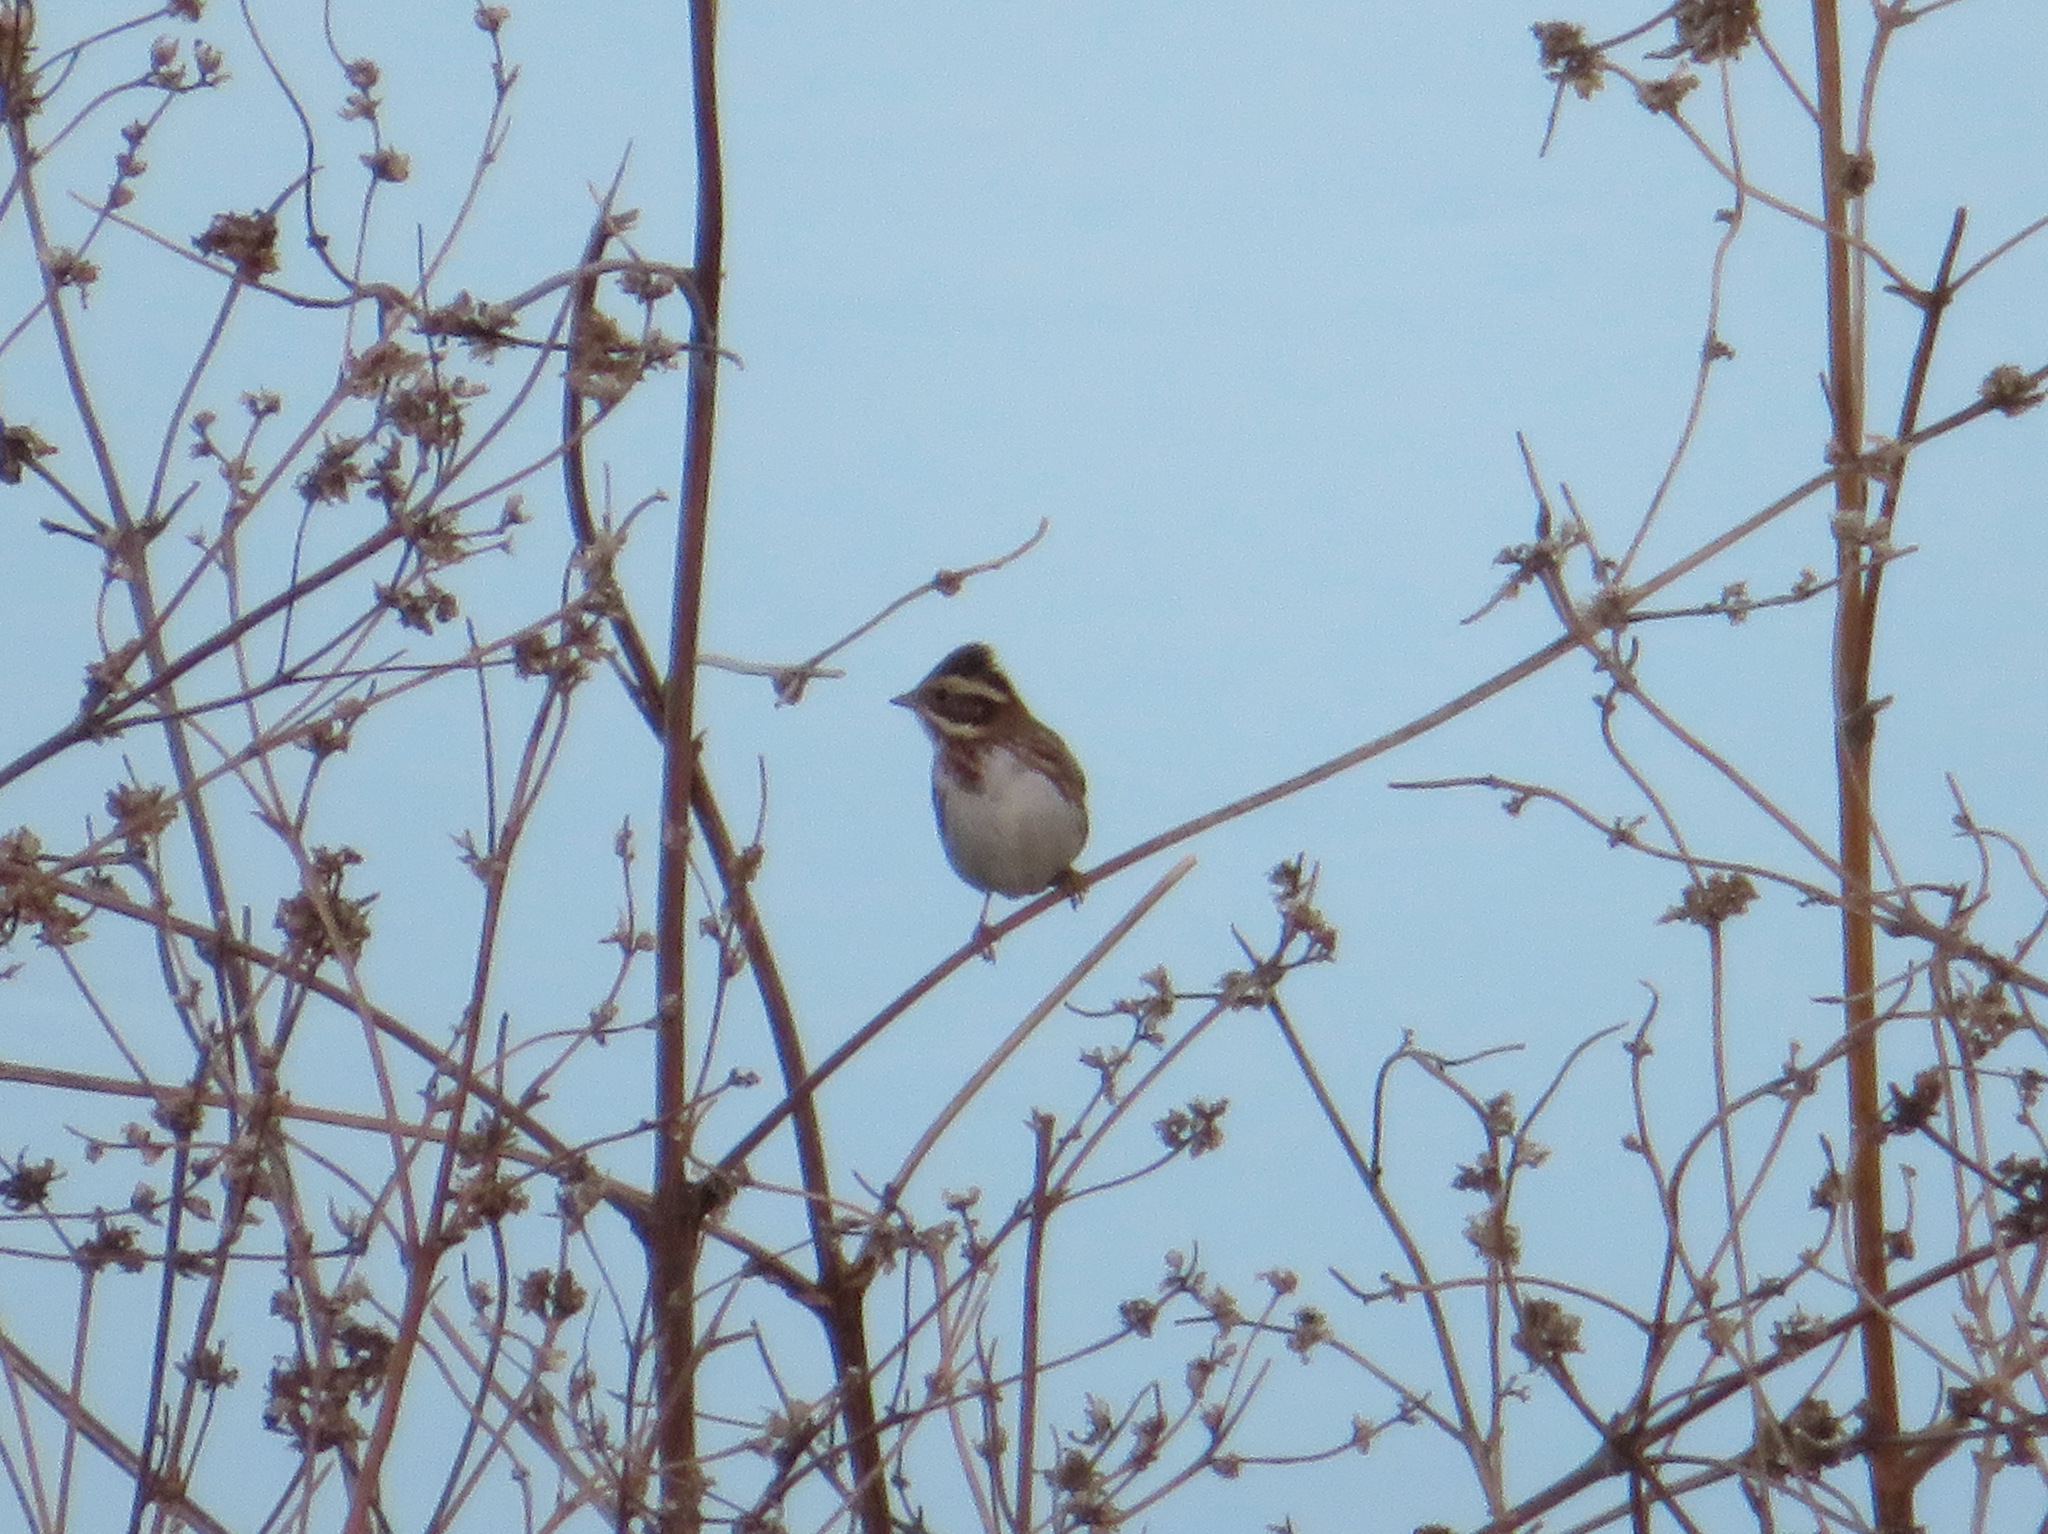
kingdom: Animalia
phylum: Chordata
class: Aves
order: Passeriformes
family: Emberizidae
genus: Emberiza
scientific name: Emberiza rustica
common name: Rustic bunting
